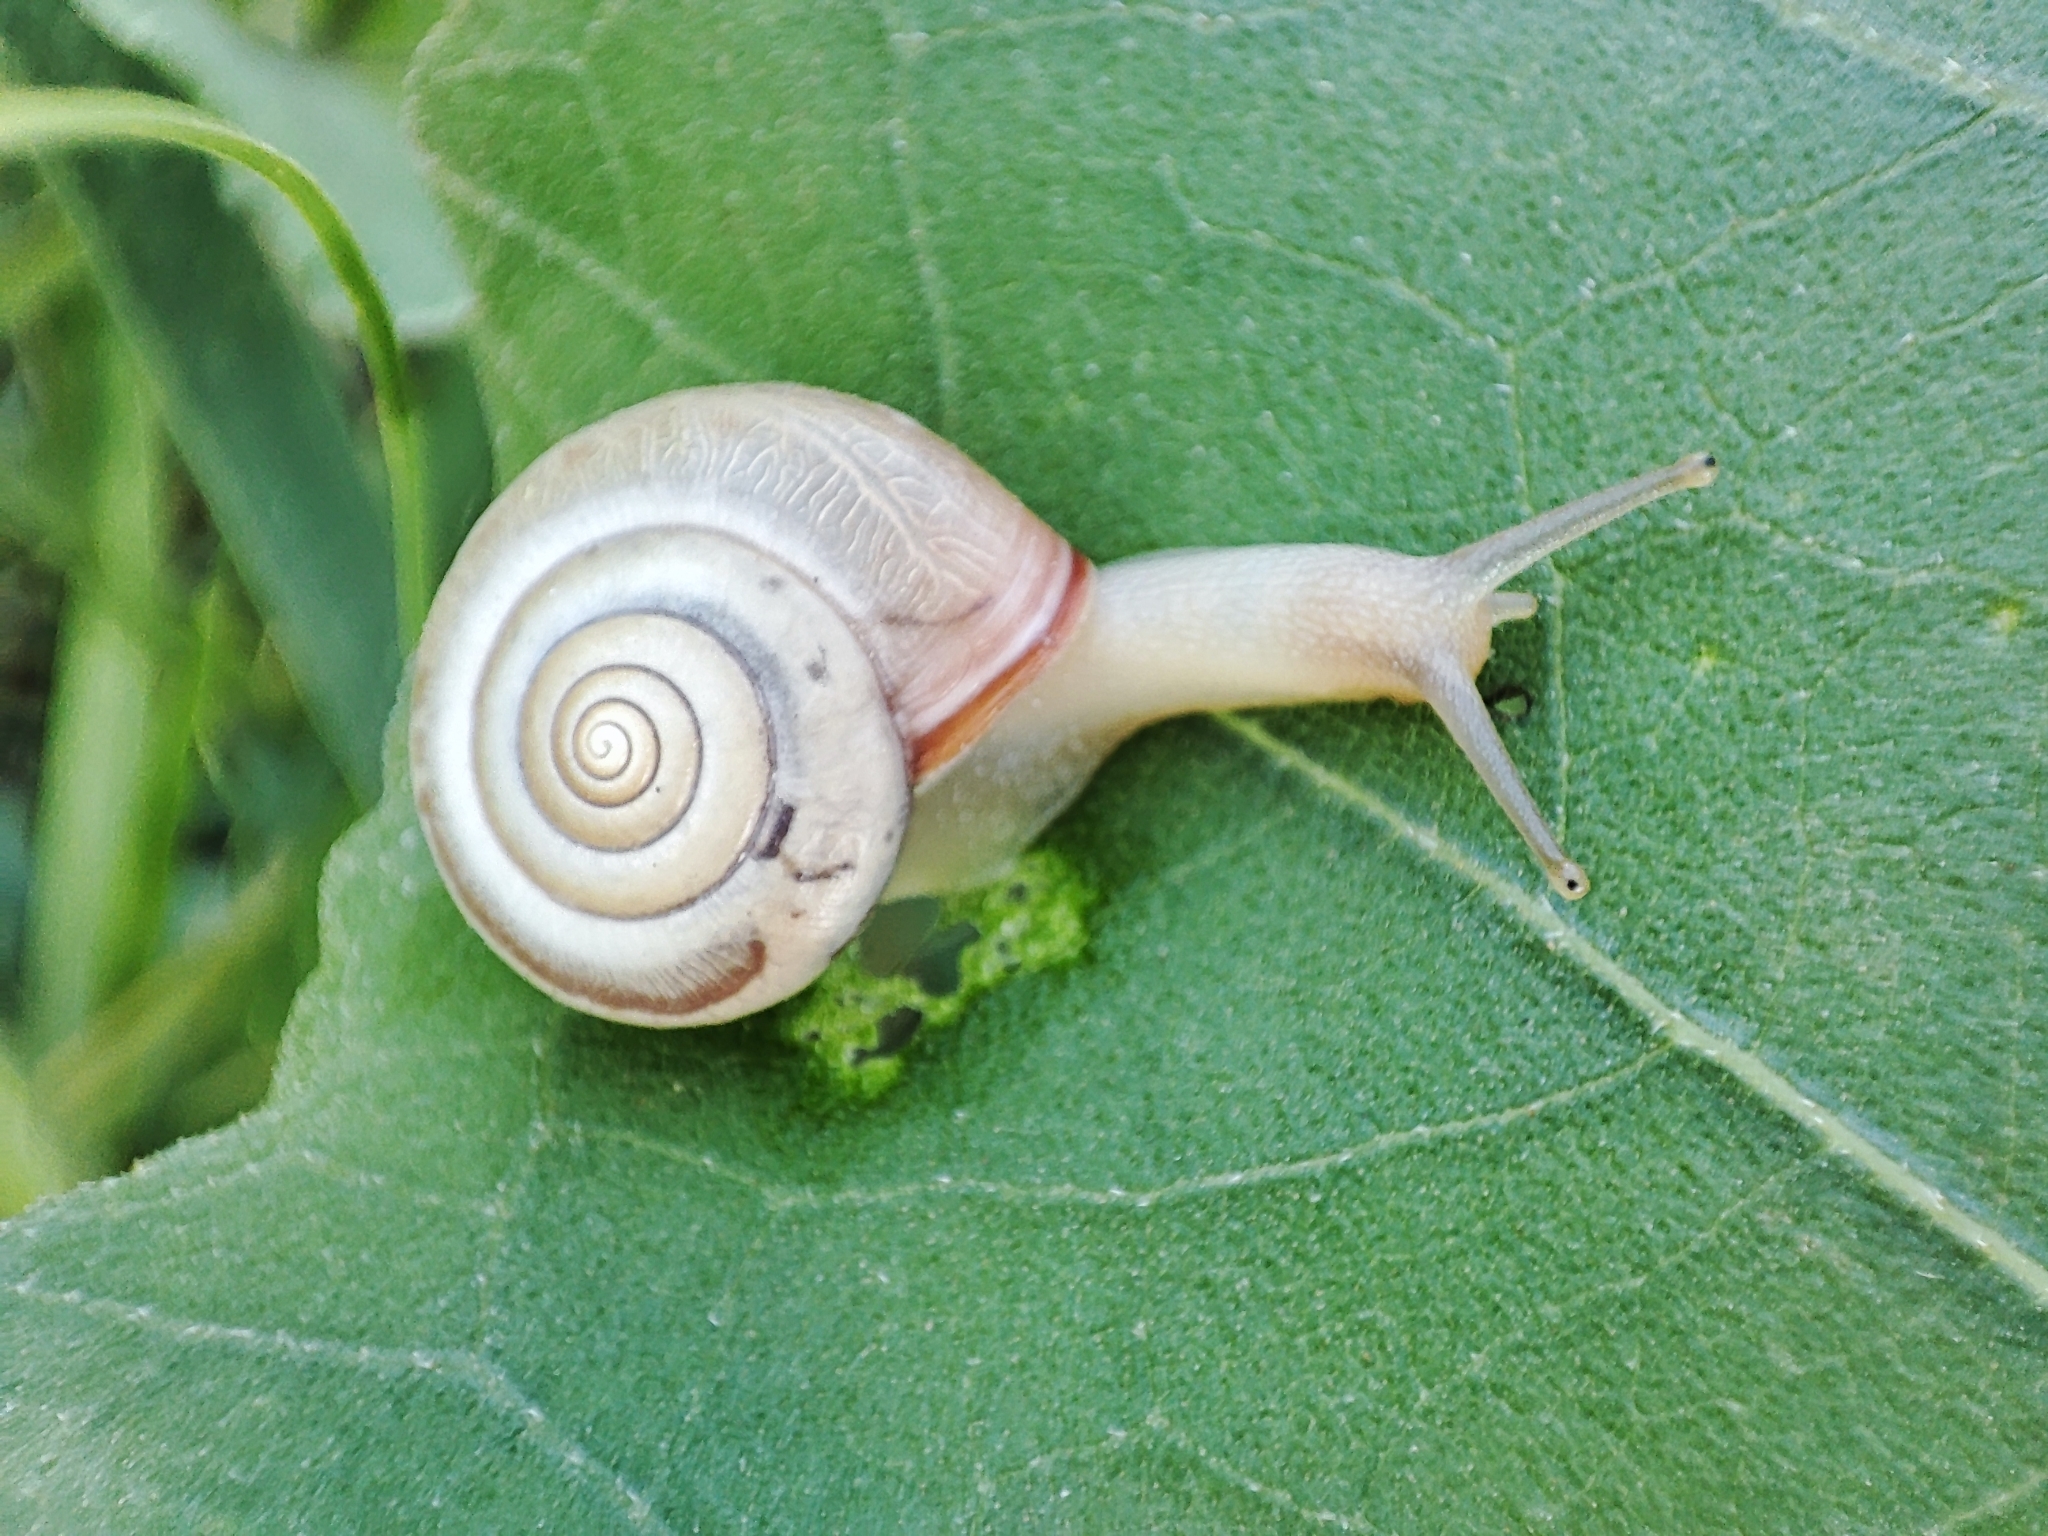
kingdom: Animalia
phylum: Mollusca
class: Gastropoda
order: Stylommatophora
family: Hygromiidae
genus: Monacha
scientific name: Monacha cartusiana
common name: Carthusian snail
